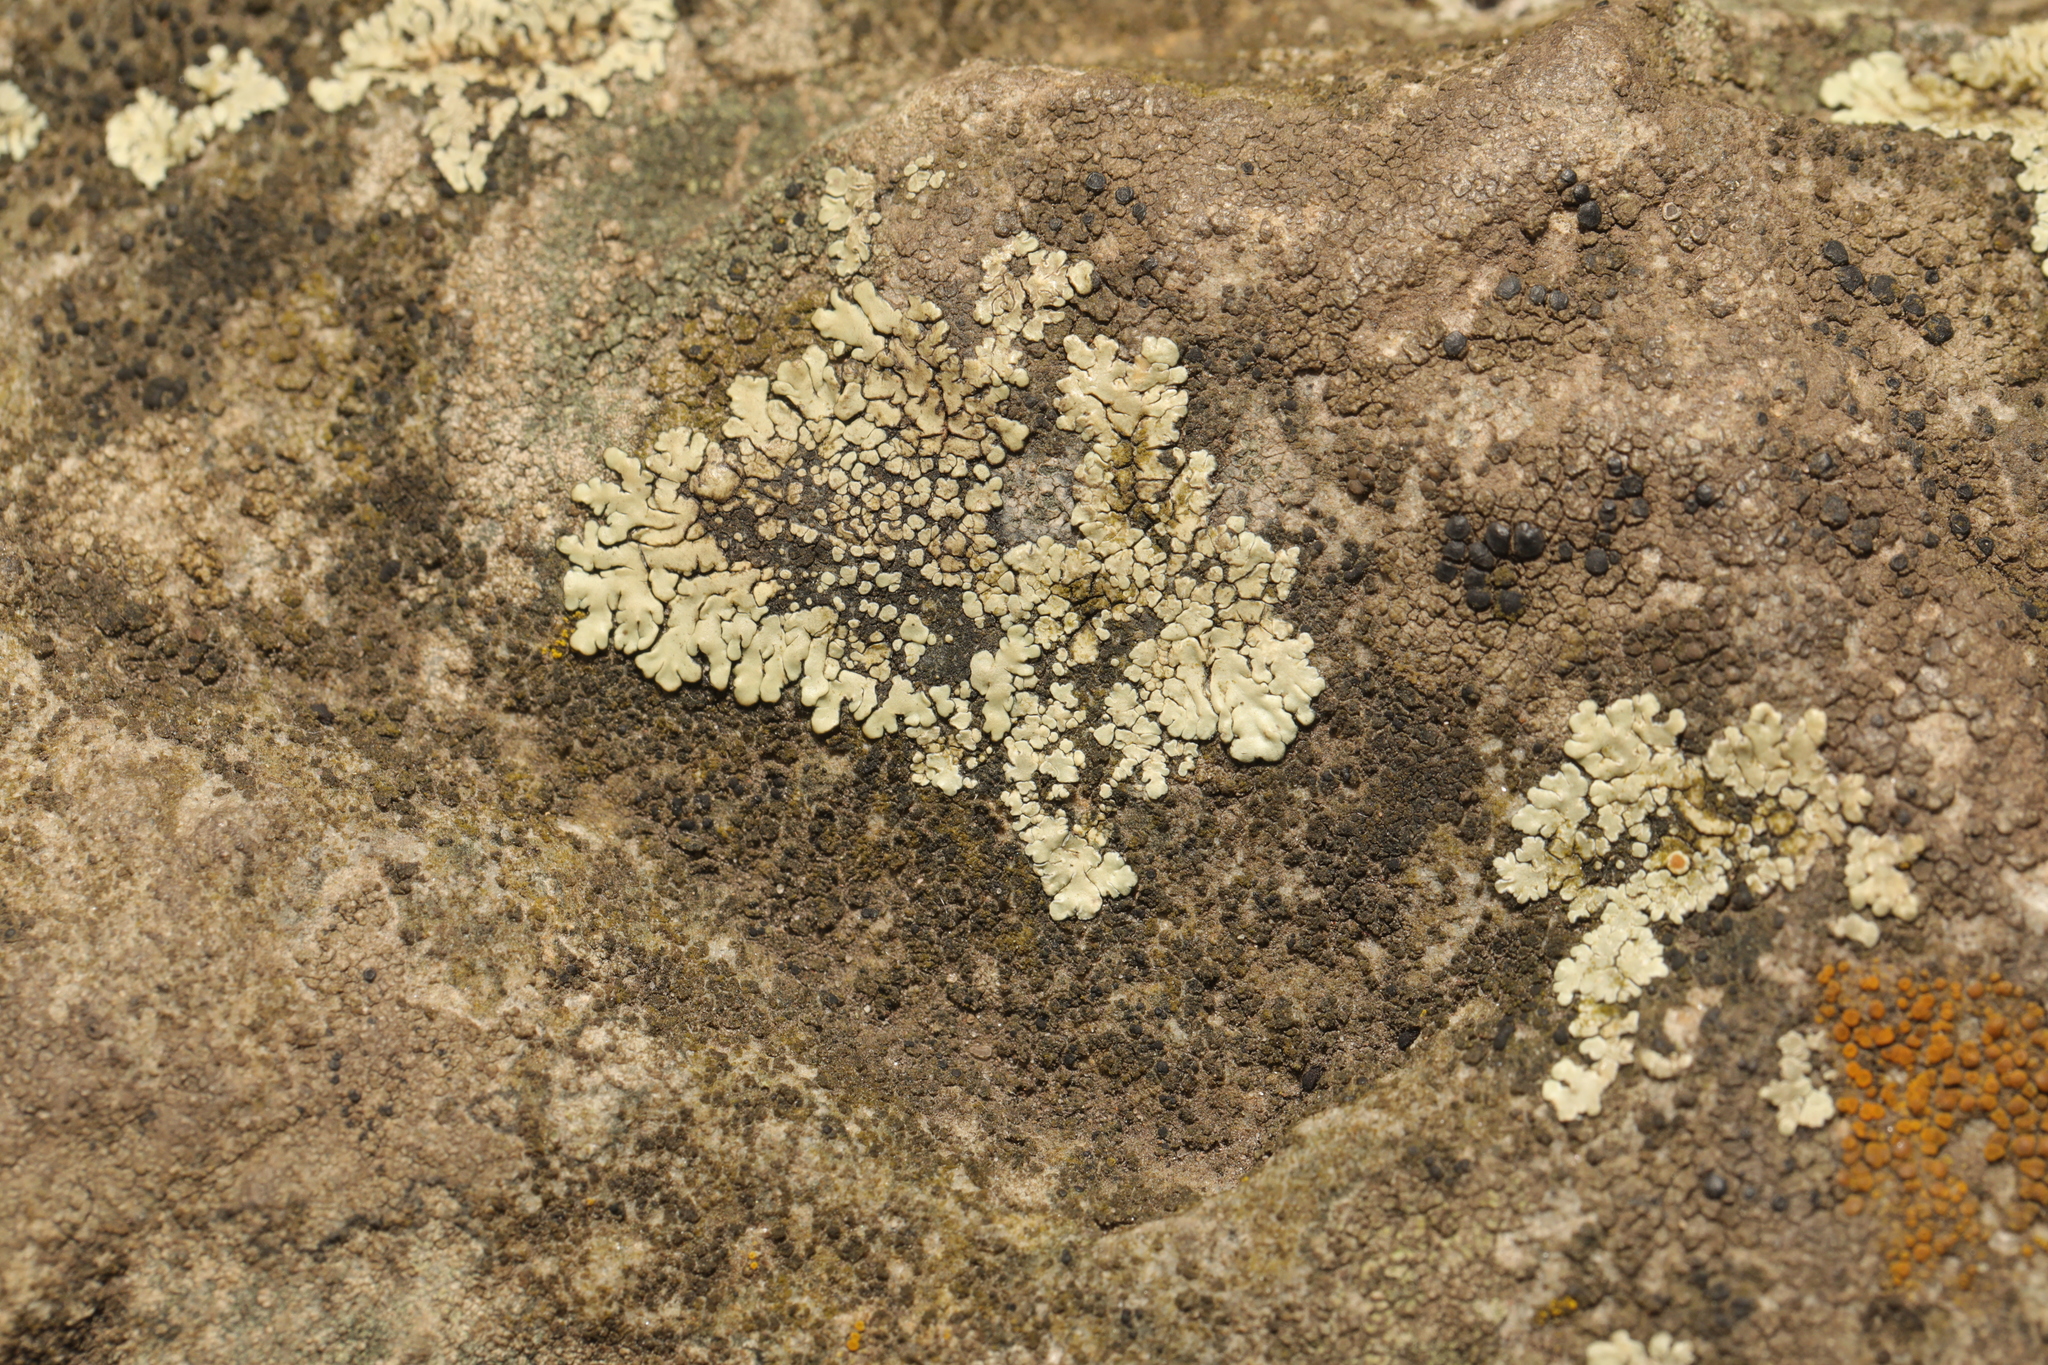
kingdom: Fungi
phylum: Ascomycota
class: Lecanoromycetes
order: Lecanorales
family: Lecanoraceae
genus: Protoparmeliopsis
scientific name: Protoparmeliopsis muralis
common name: Stonewall rim lichen
